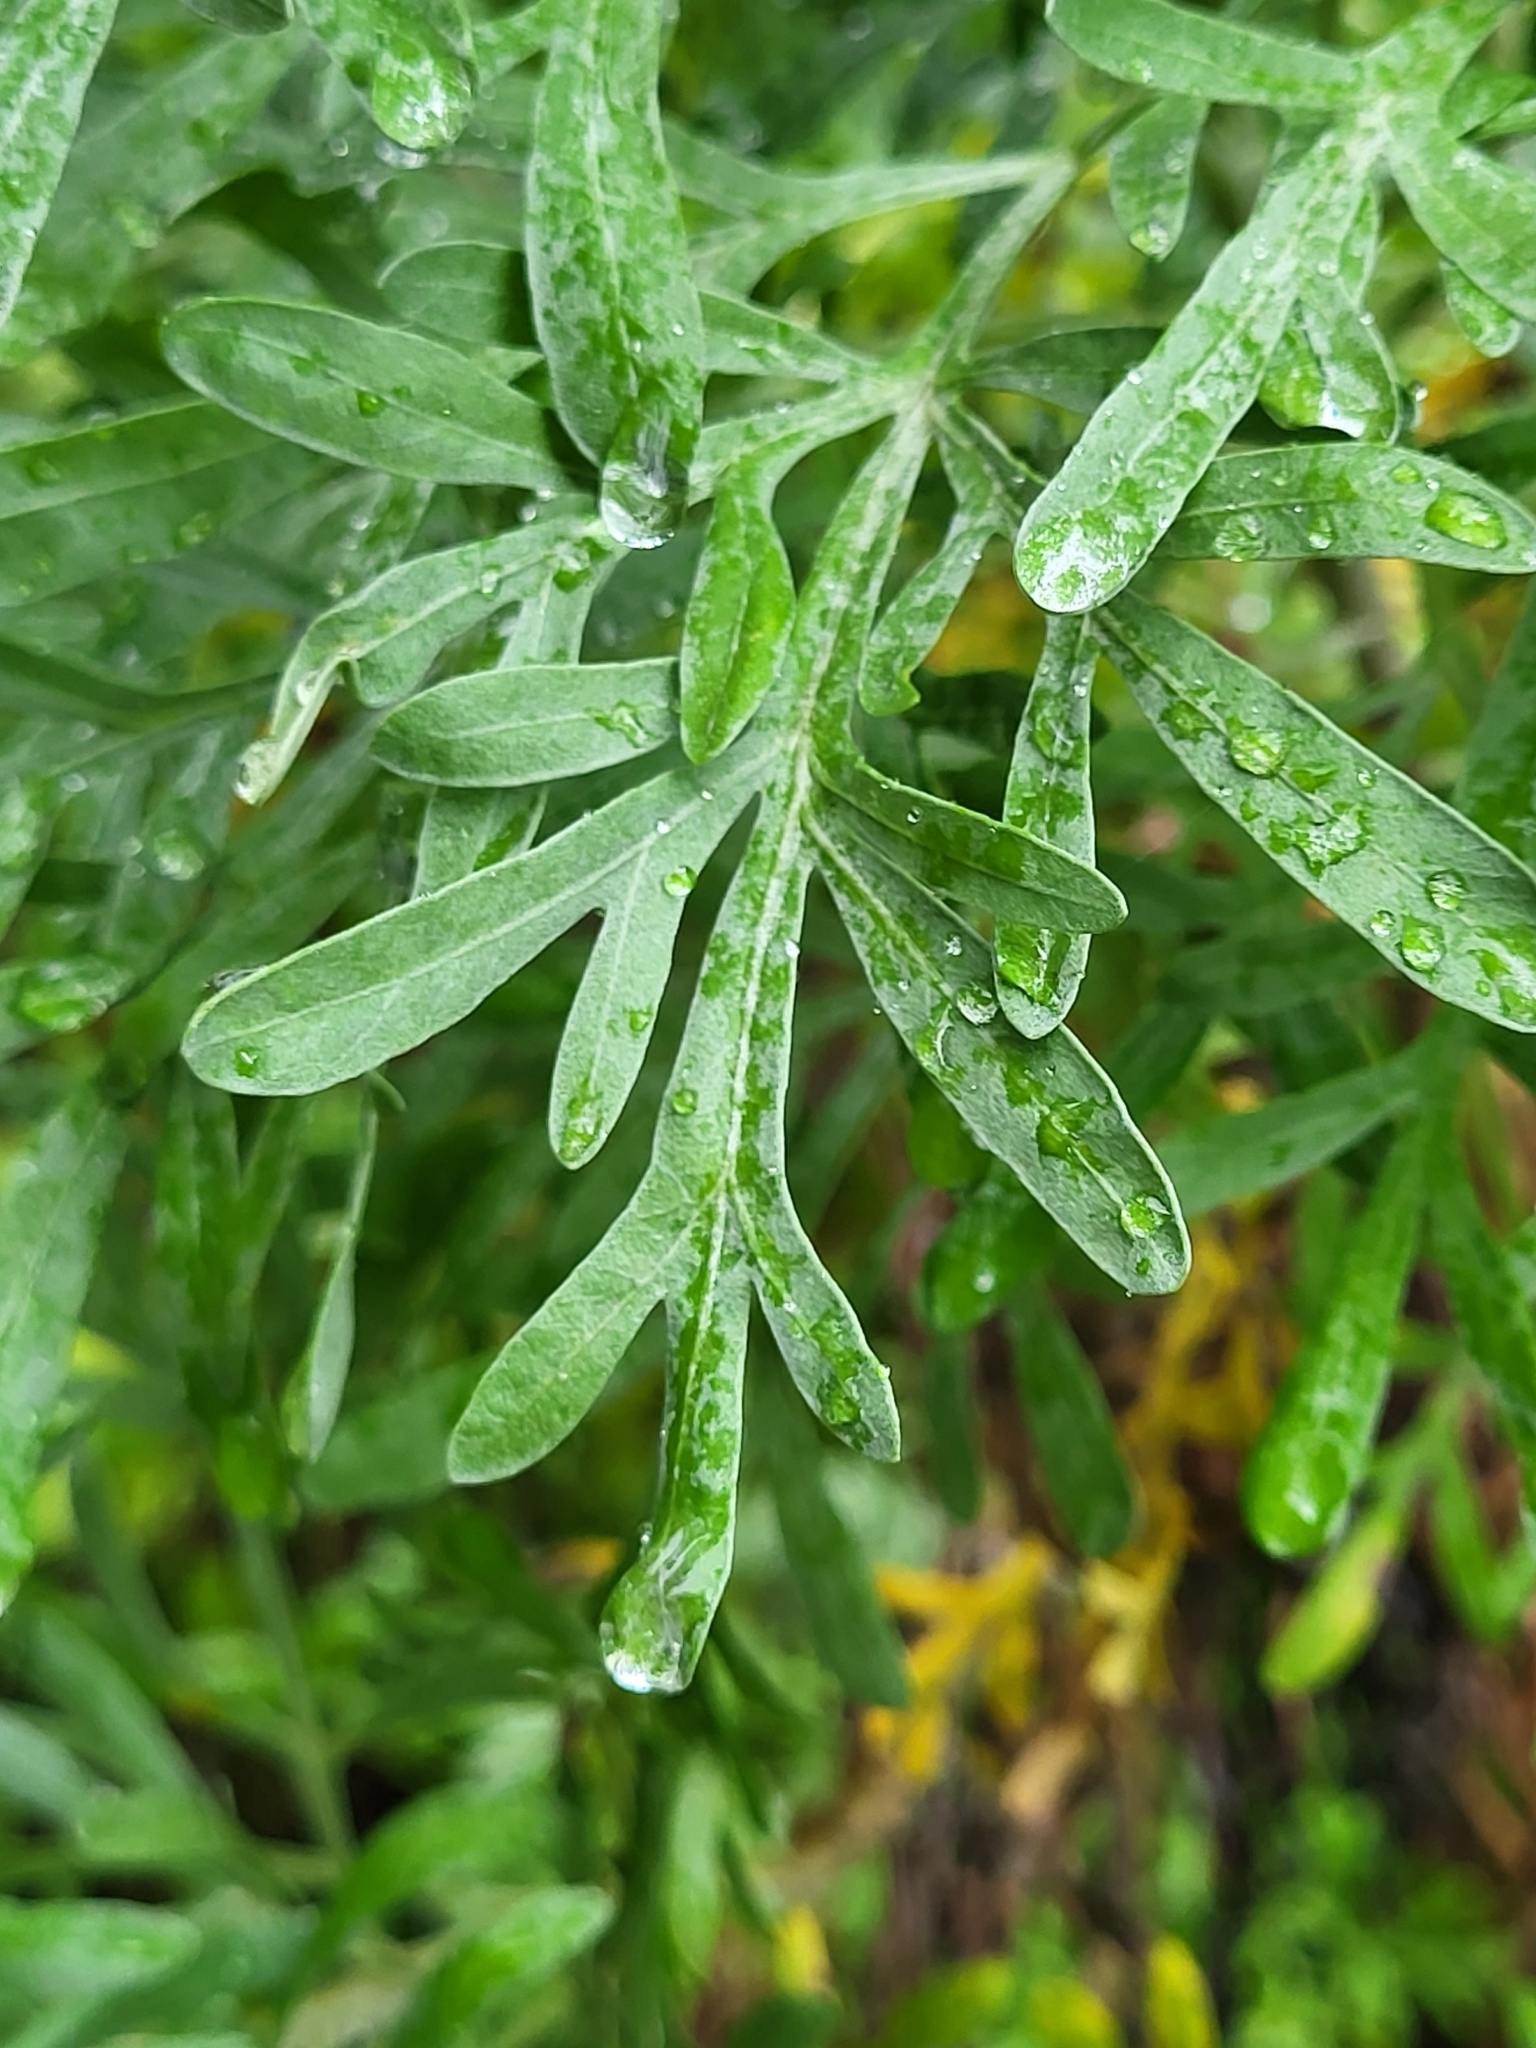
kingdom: Plantae
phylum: Tracheophyta
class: Magnoliopsida
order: Asterales
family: Asteraceae
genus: Artemisia
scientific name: Artemisia thuscula
